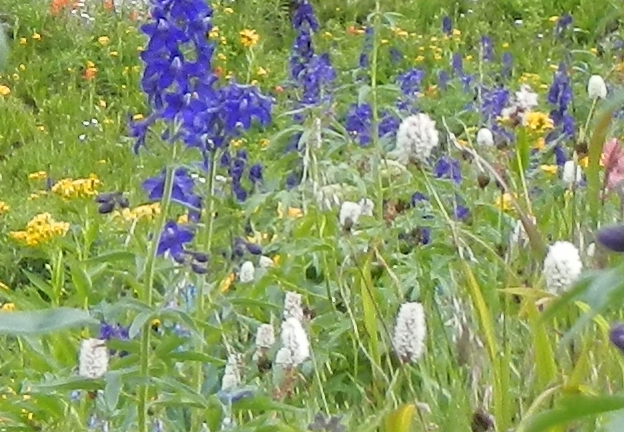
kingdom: Plantae
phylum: Tracheophyta
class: Magnoliopsida
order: Caryophyllales
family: Polygonaceae
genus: Bistorta
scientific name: Bistorta bistortoides
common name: American bistort
